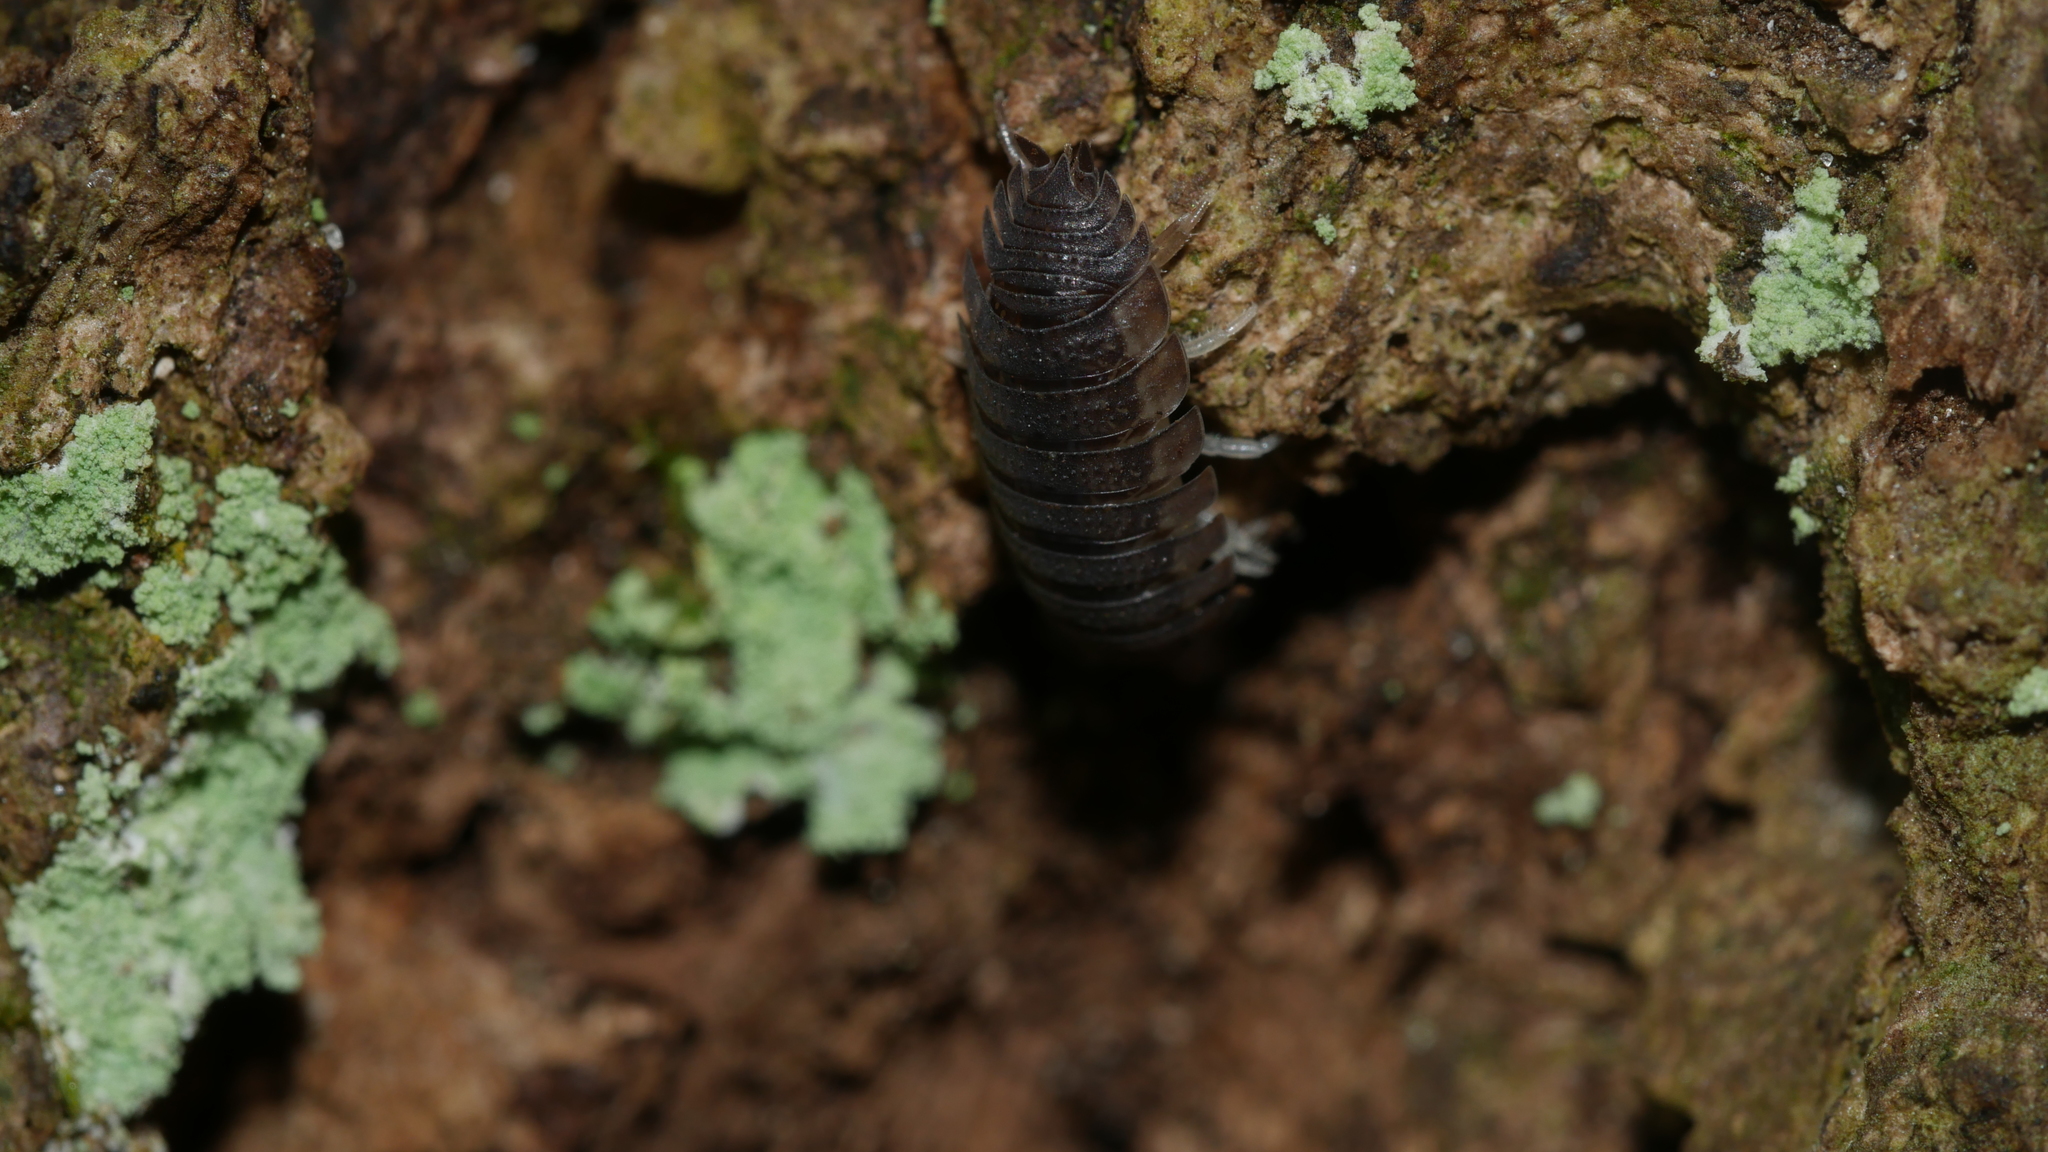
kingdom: Animalia
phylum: Arthropoda
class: Malacostraca
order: Isopoda
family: Porcellionidae
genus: Porcellio
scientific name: Porcellio scaber
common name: Common rough woodlouse
